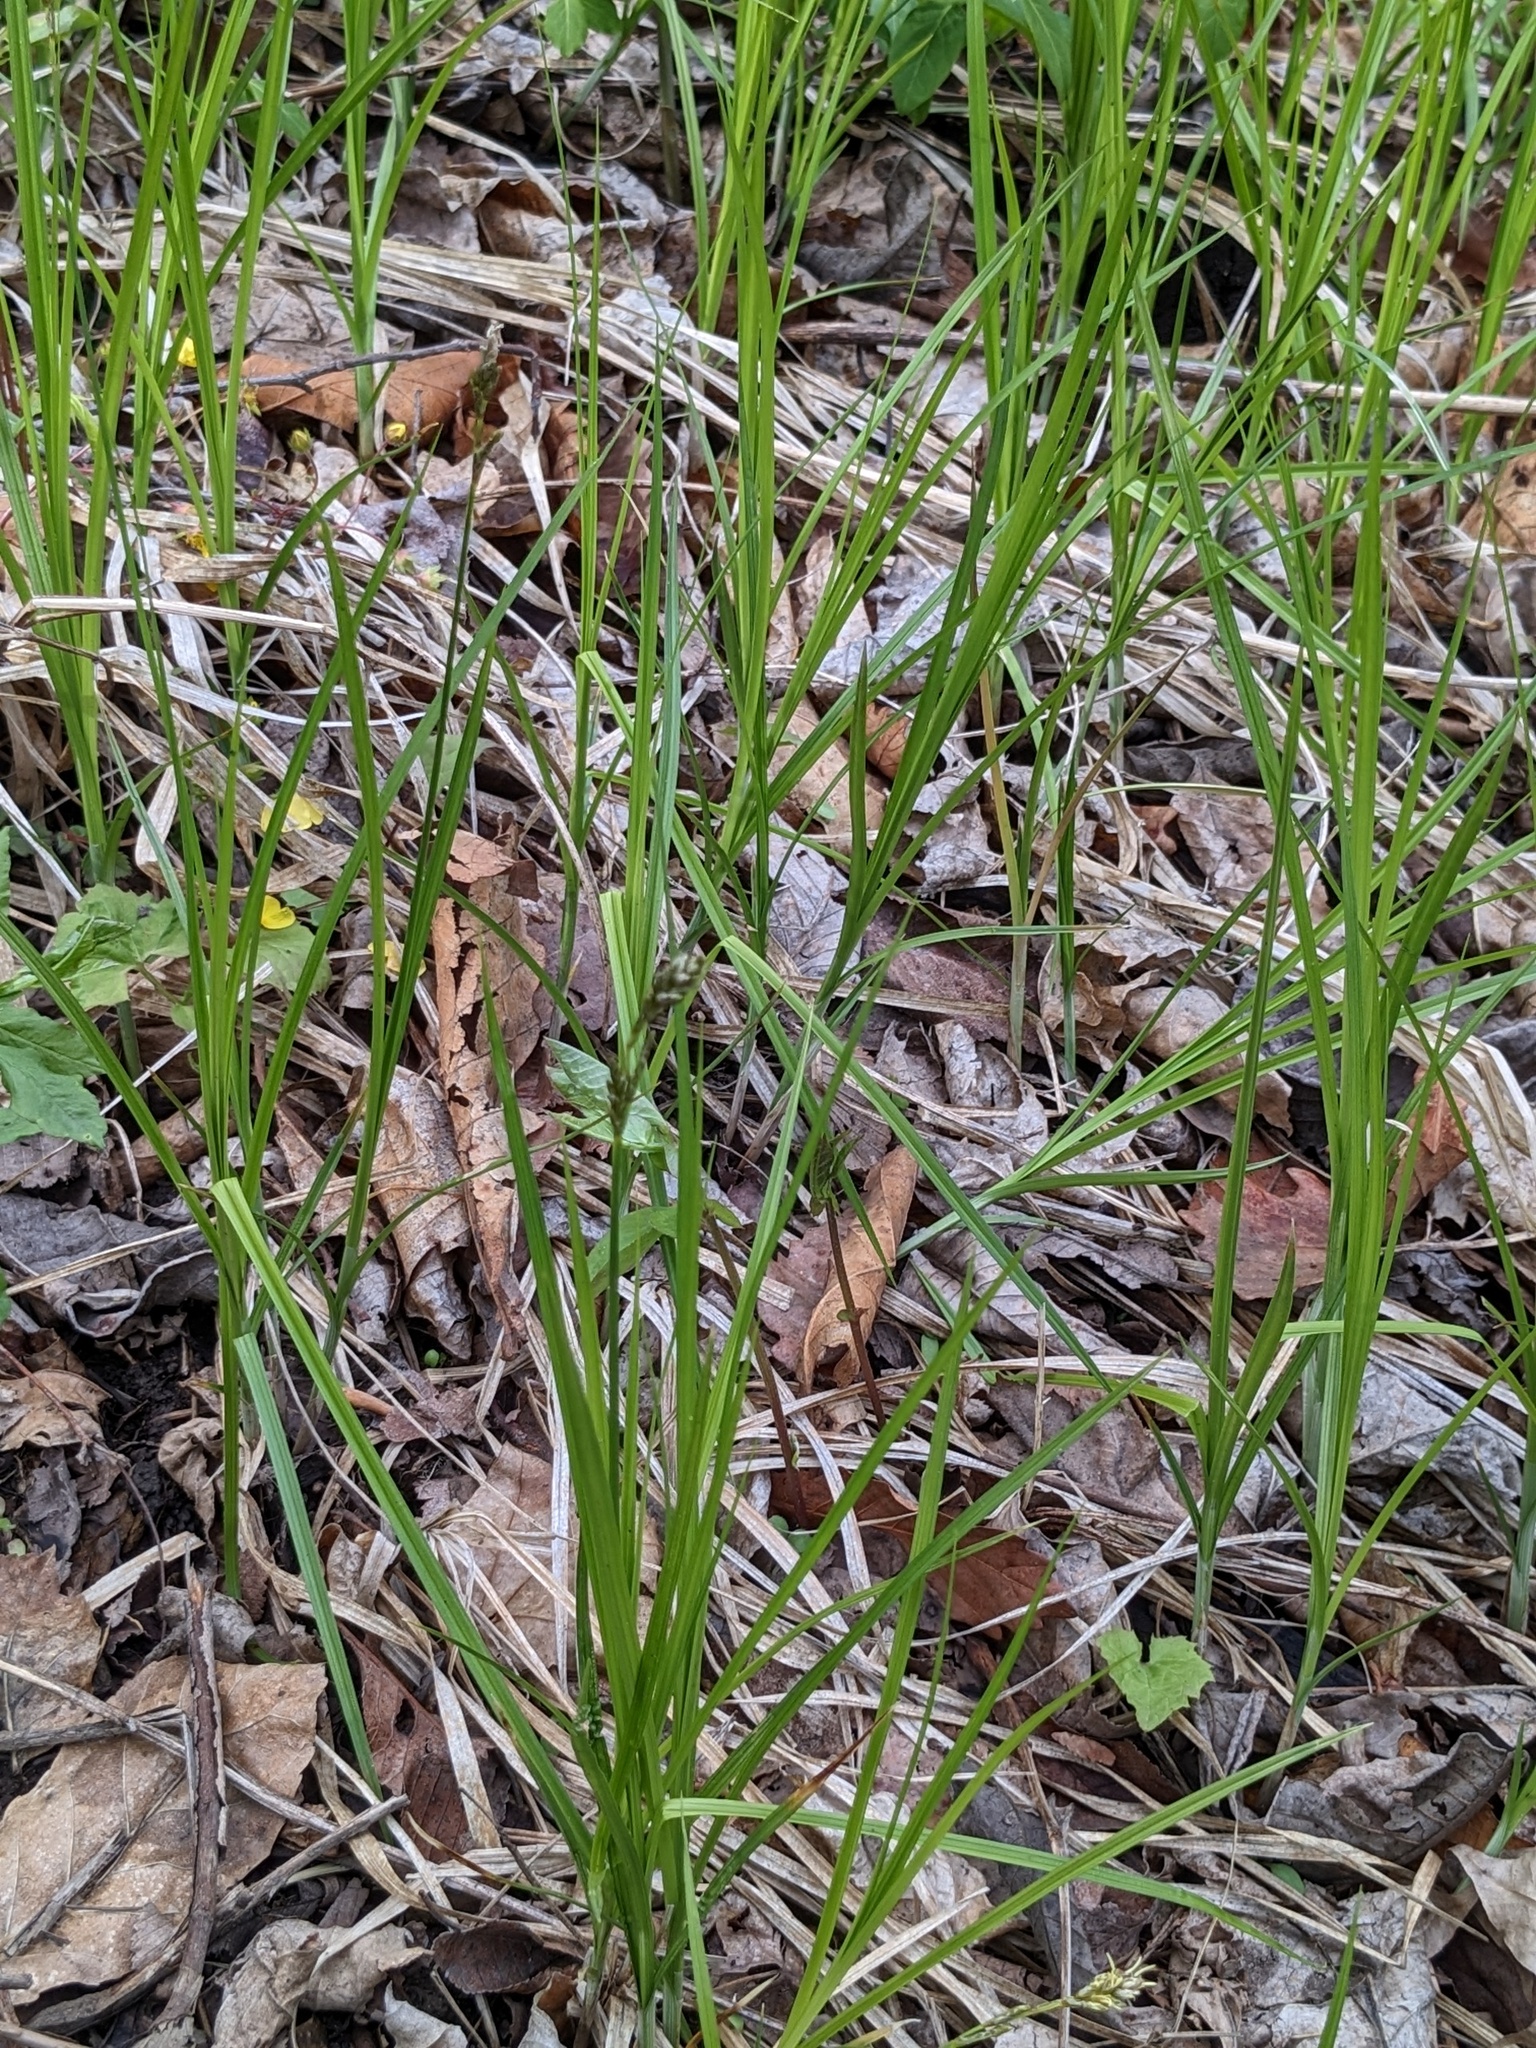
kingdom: Plantae
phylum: Tracheophyta
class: Liliopsida
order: Poales
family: Cyperaceae
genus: Carex
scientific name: Carex accrescens
